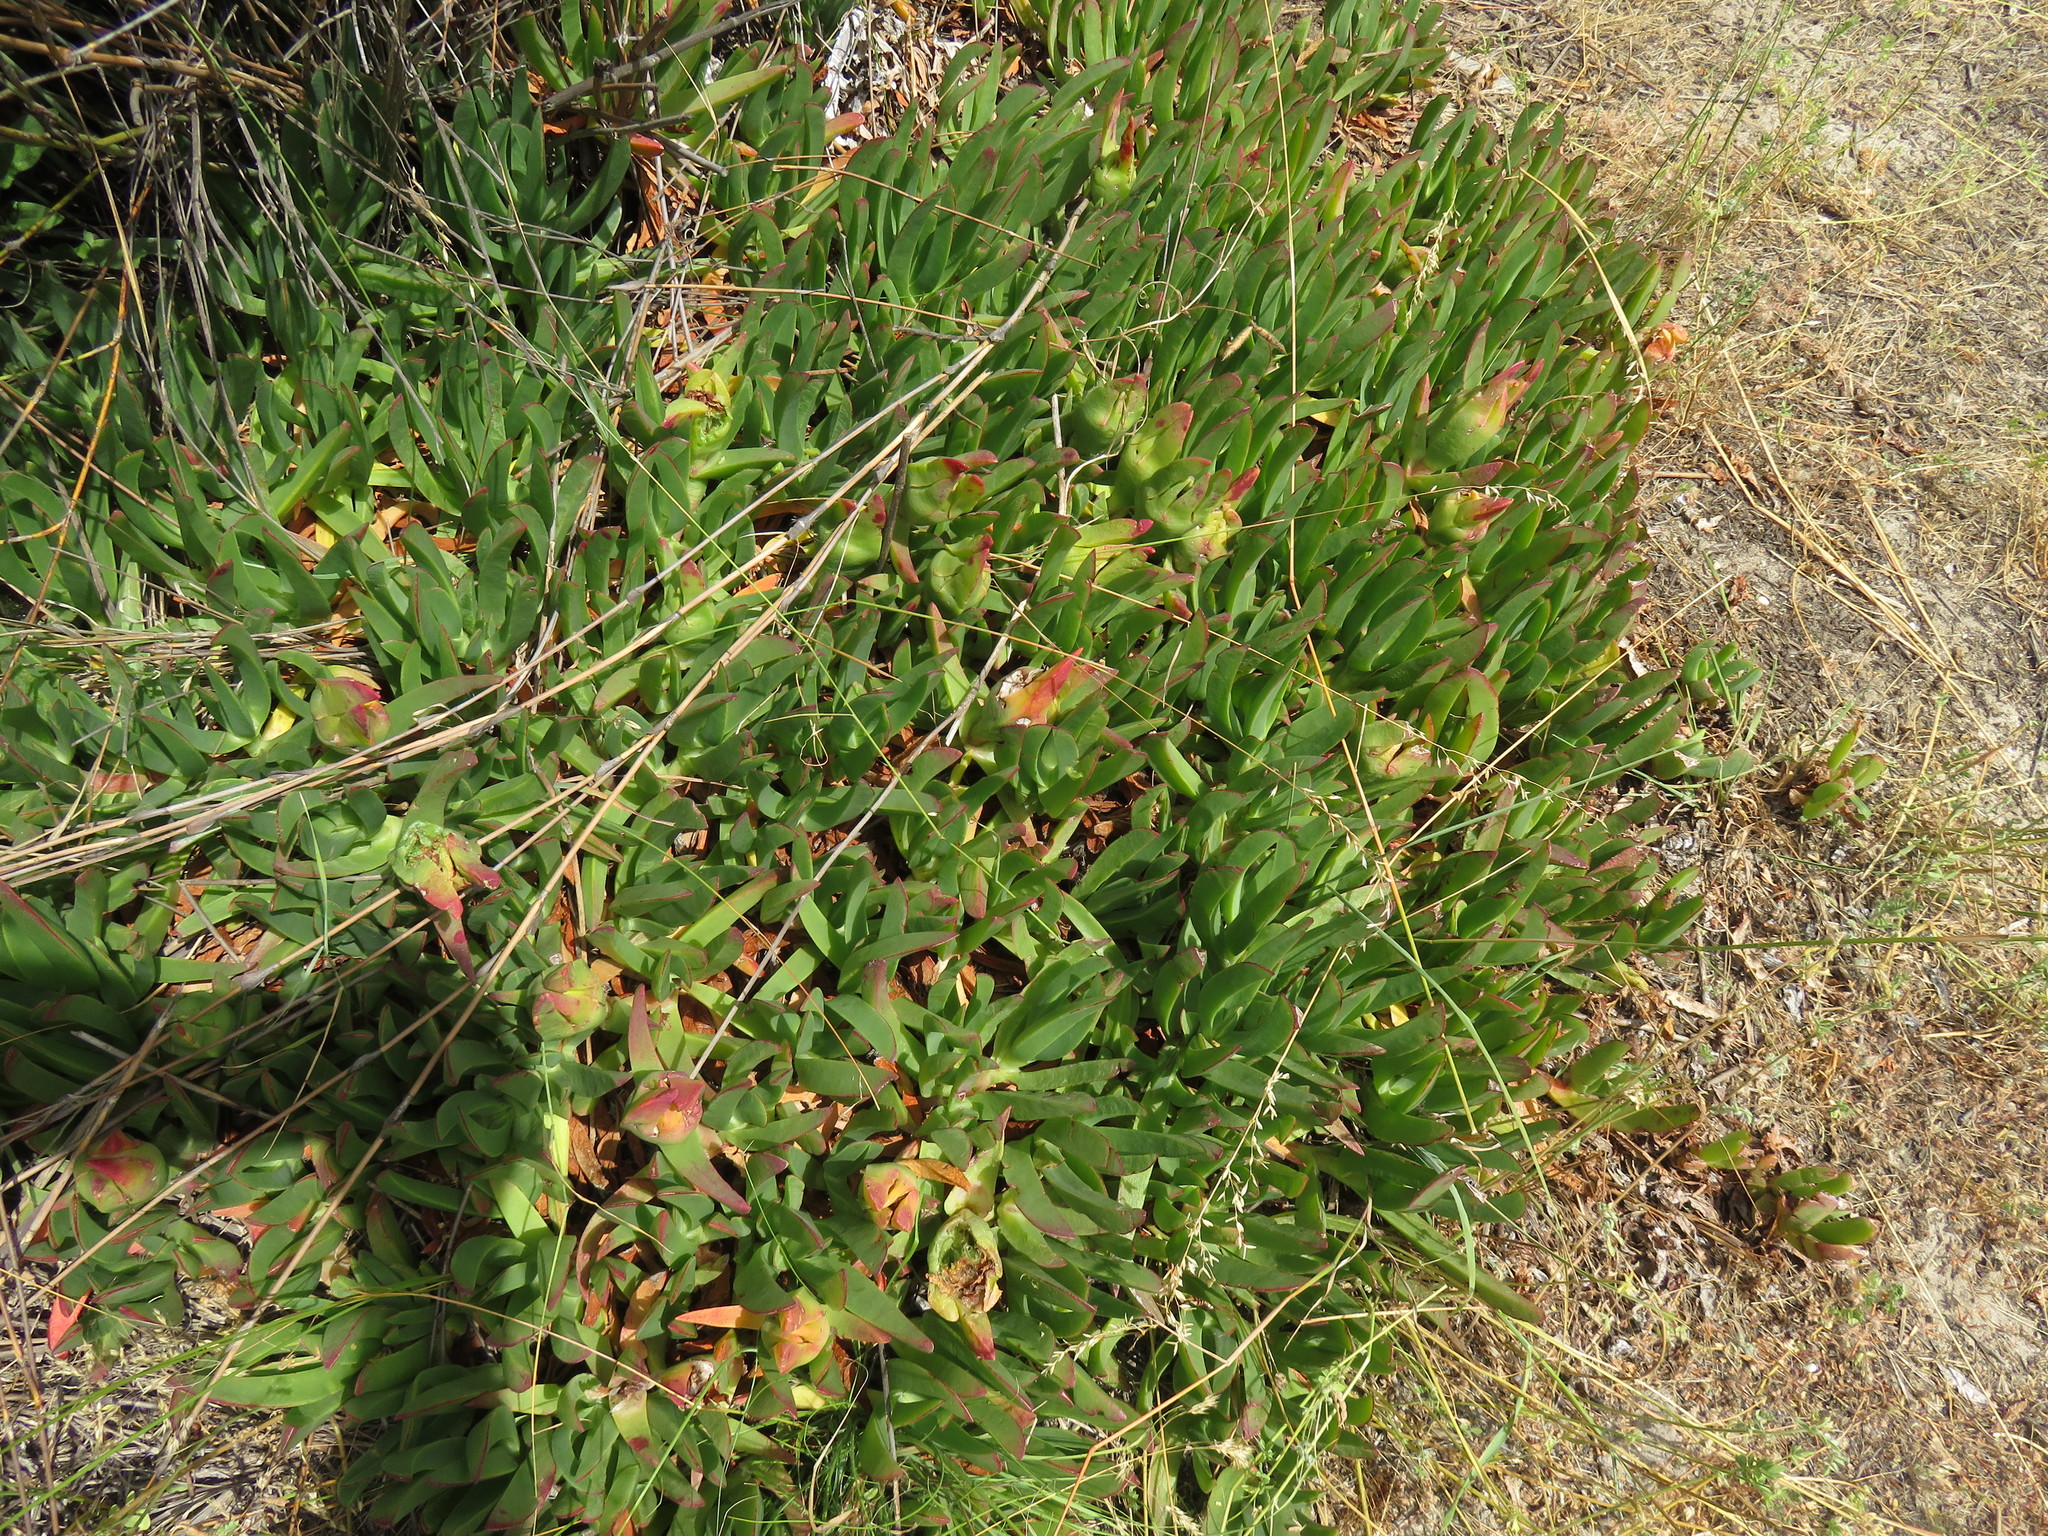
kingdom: Plantae
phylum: Tracheophyta
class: Magnoliopsida
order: Caryophyllales
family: Aizoaceae
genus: Carpobrotus
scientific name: Carpobrotus edulis
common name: Hottentot-fig
